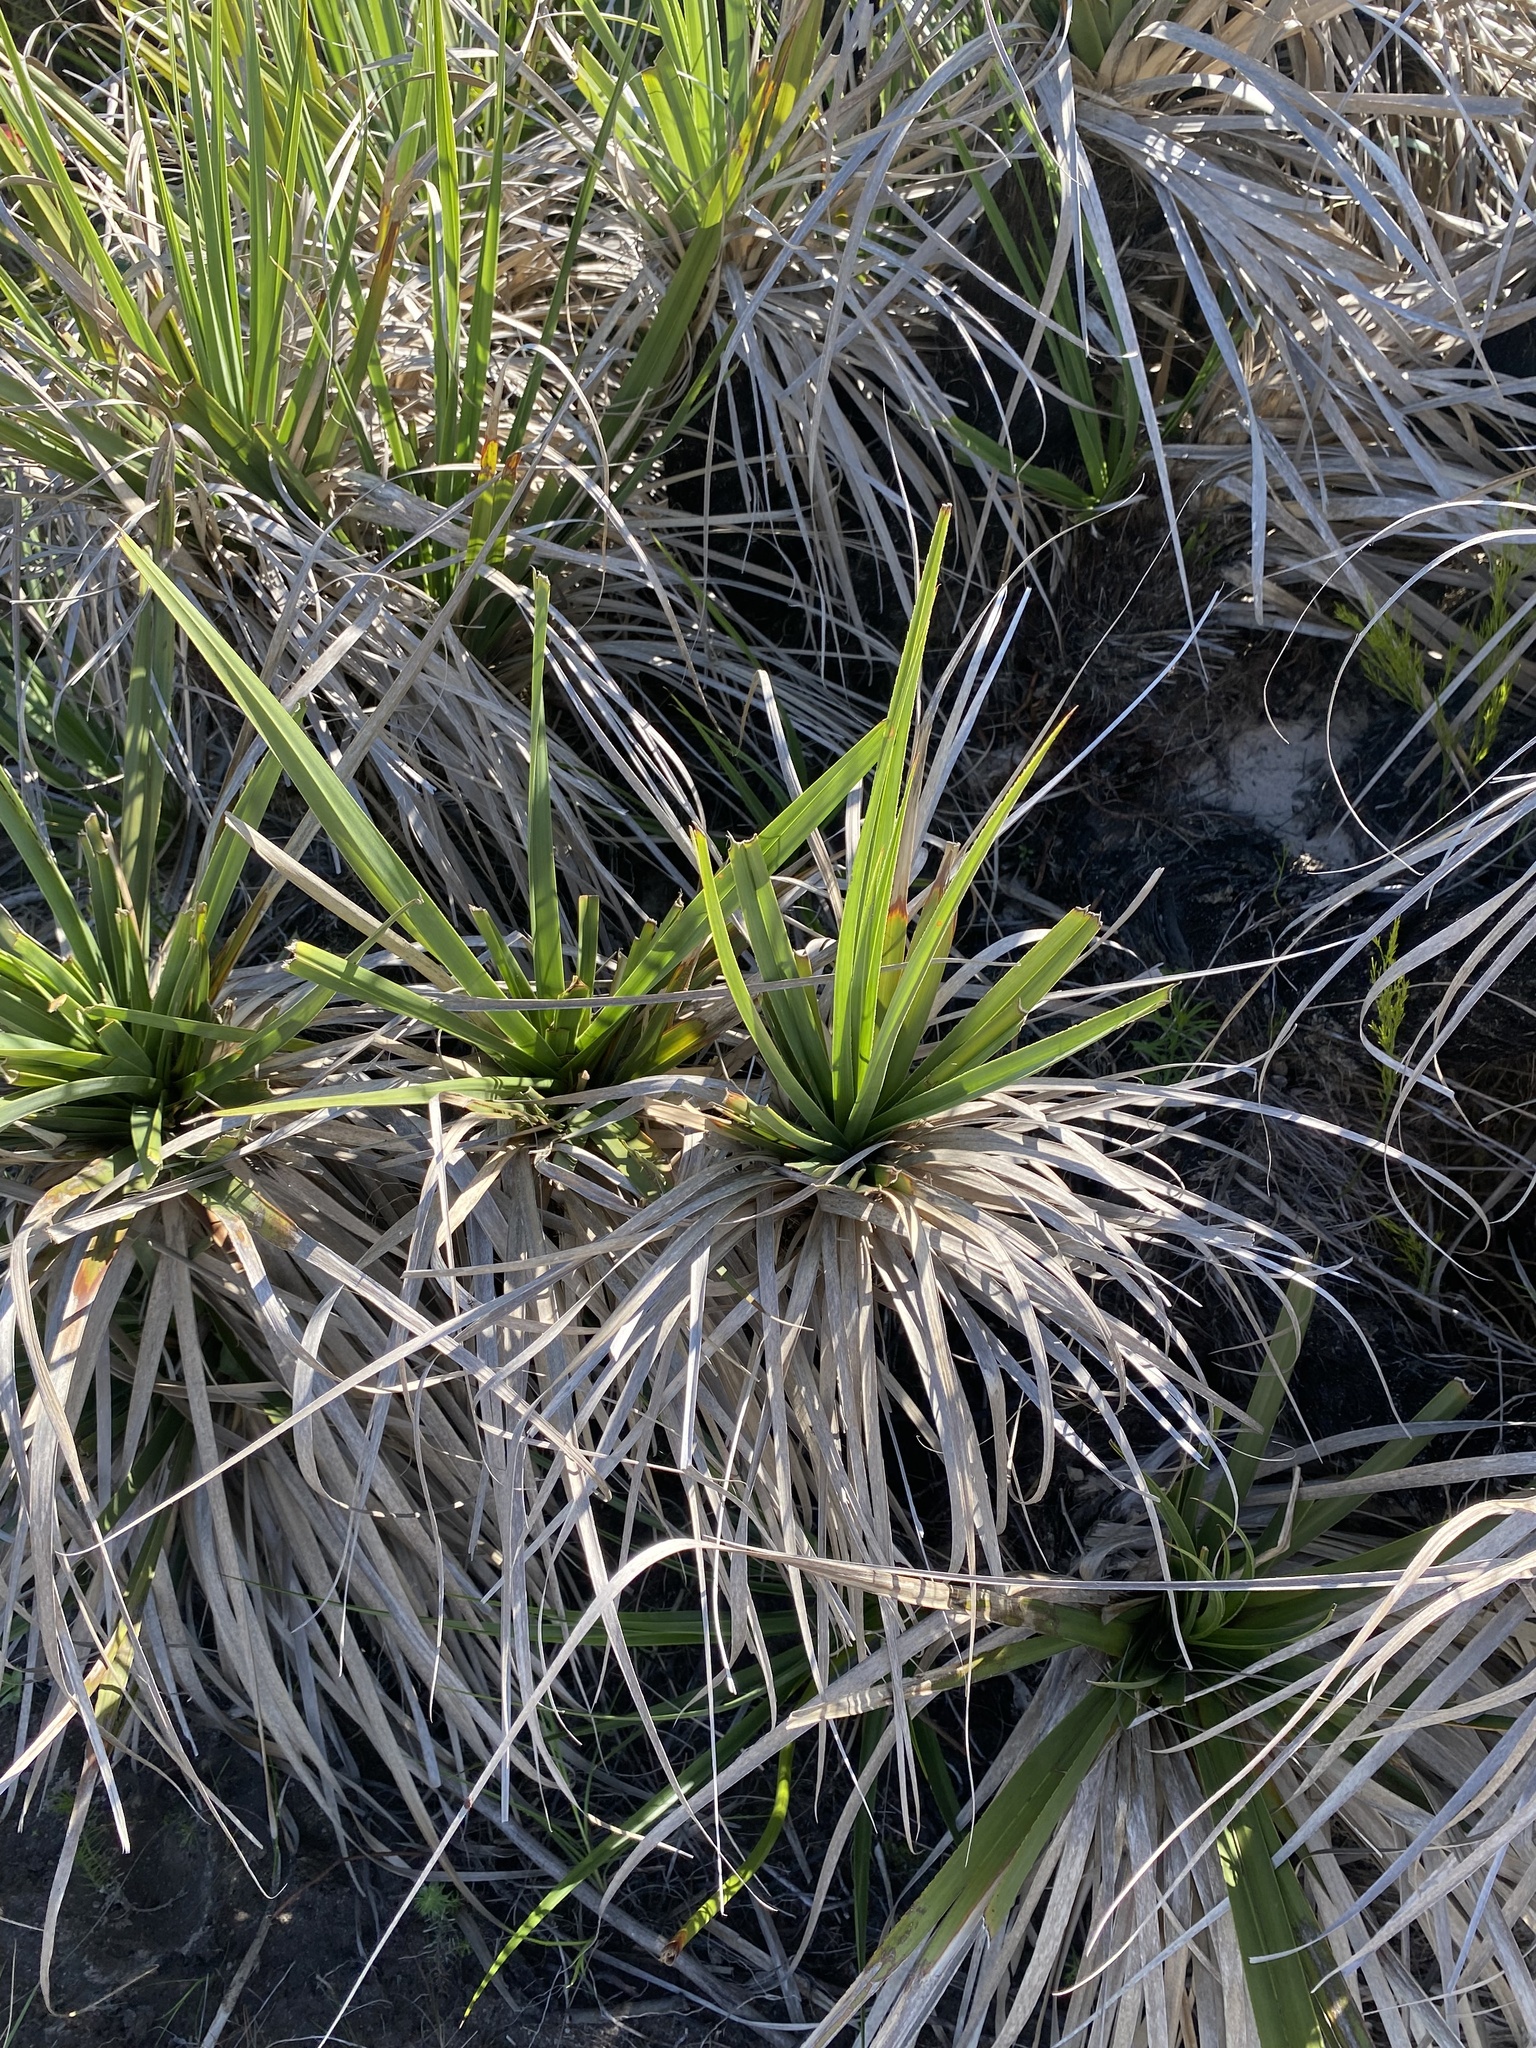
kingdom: Plantae
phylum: Tracheophyta
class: Liliopsida
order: Poales
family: Thurniaceae
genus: Prionium
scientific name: Prionium serratum
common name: Palmiet
